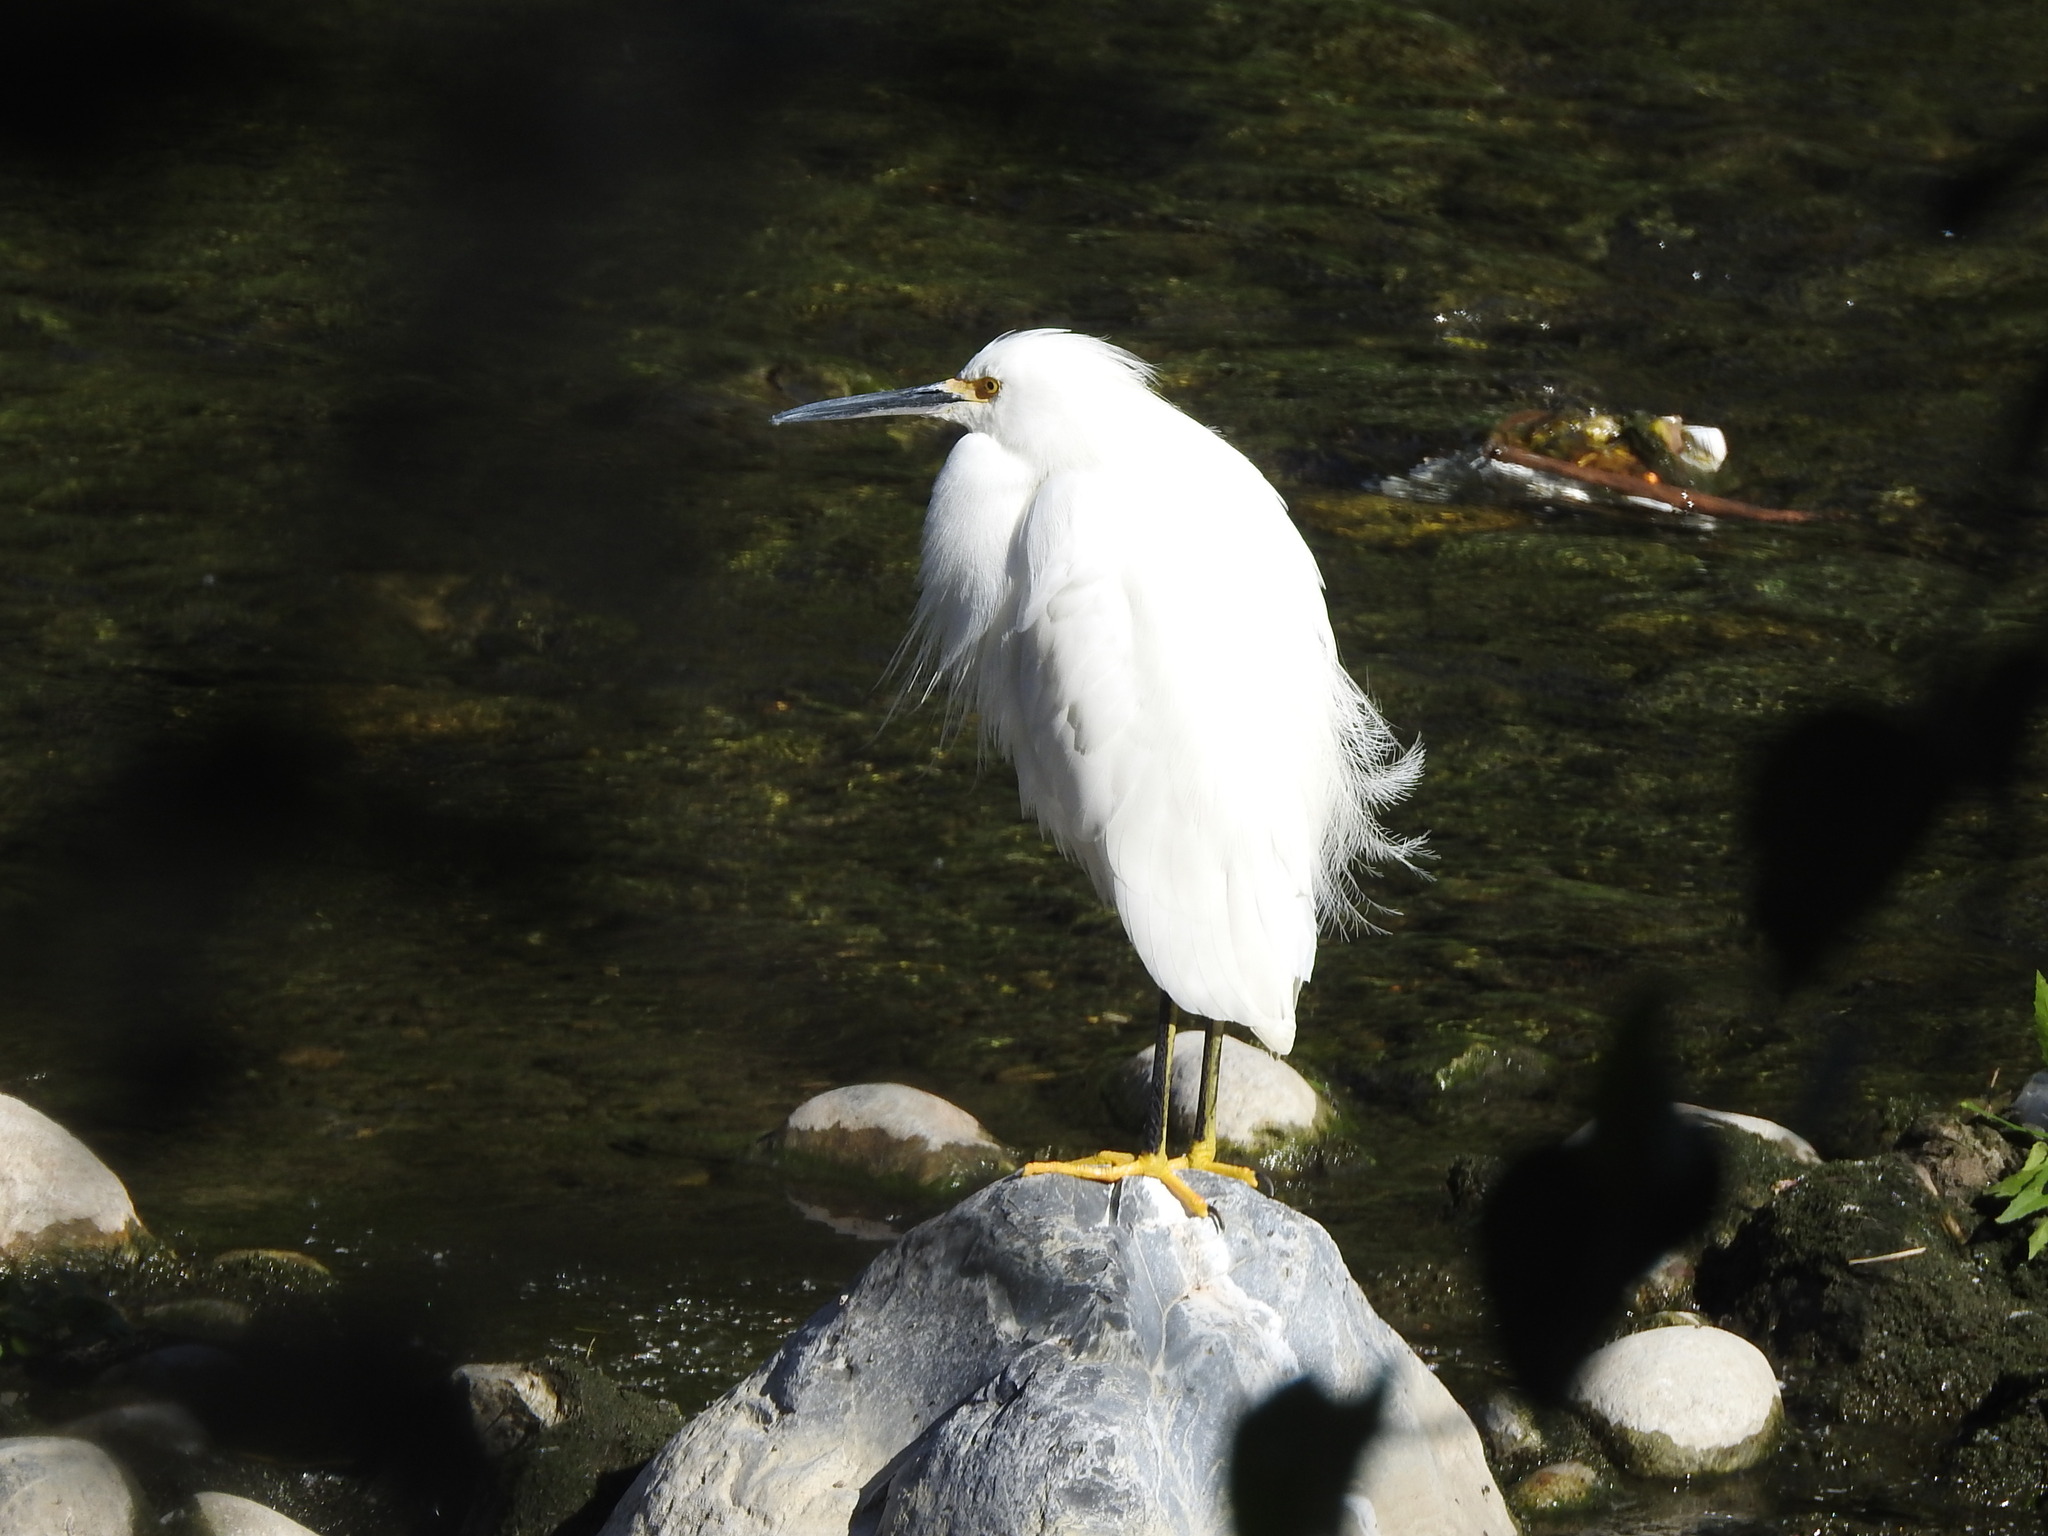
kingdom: Animalia
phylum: Chordata
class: Aves
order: Pelecaniformes
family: Ardeidae
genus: Egretta
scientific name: Egretta thula
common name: Snowy egret
